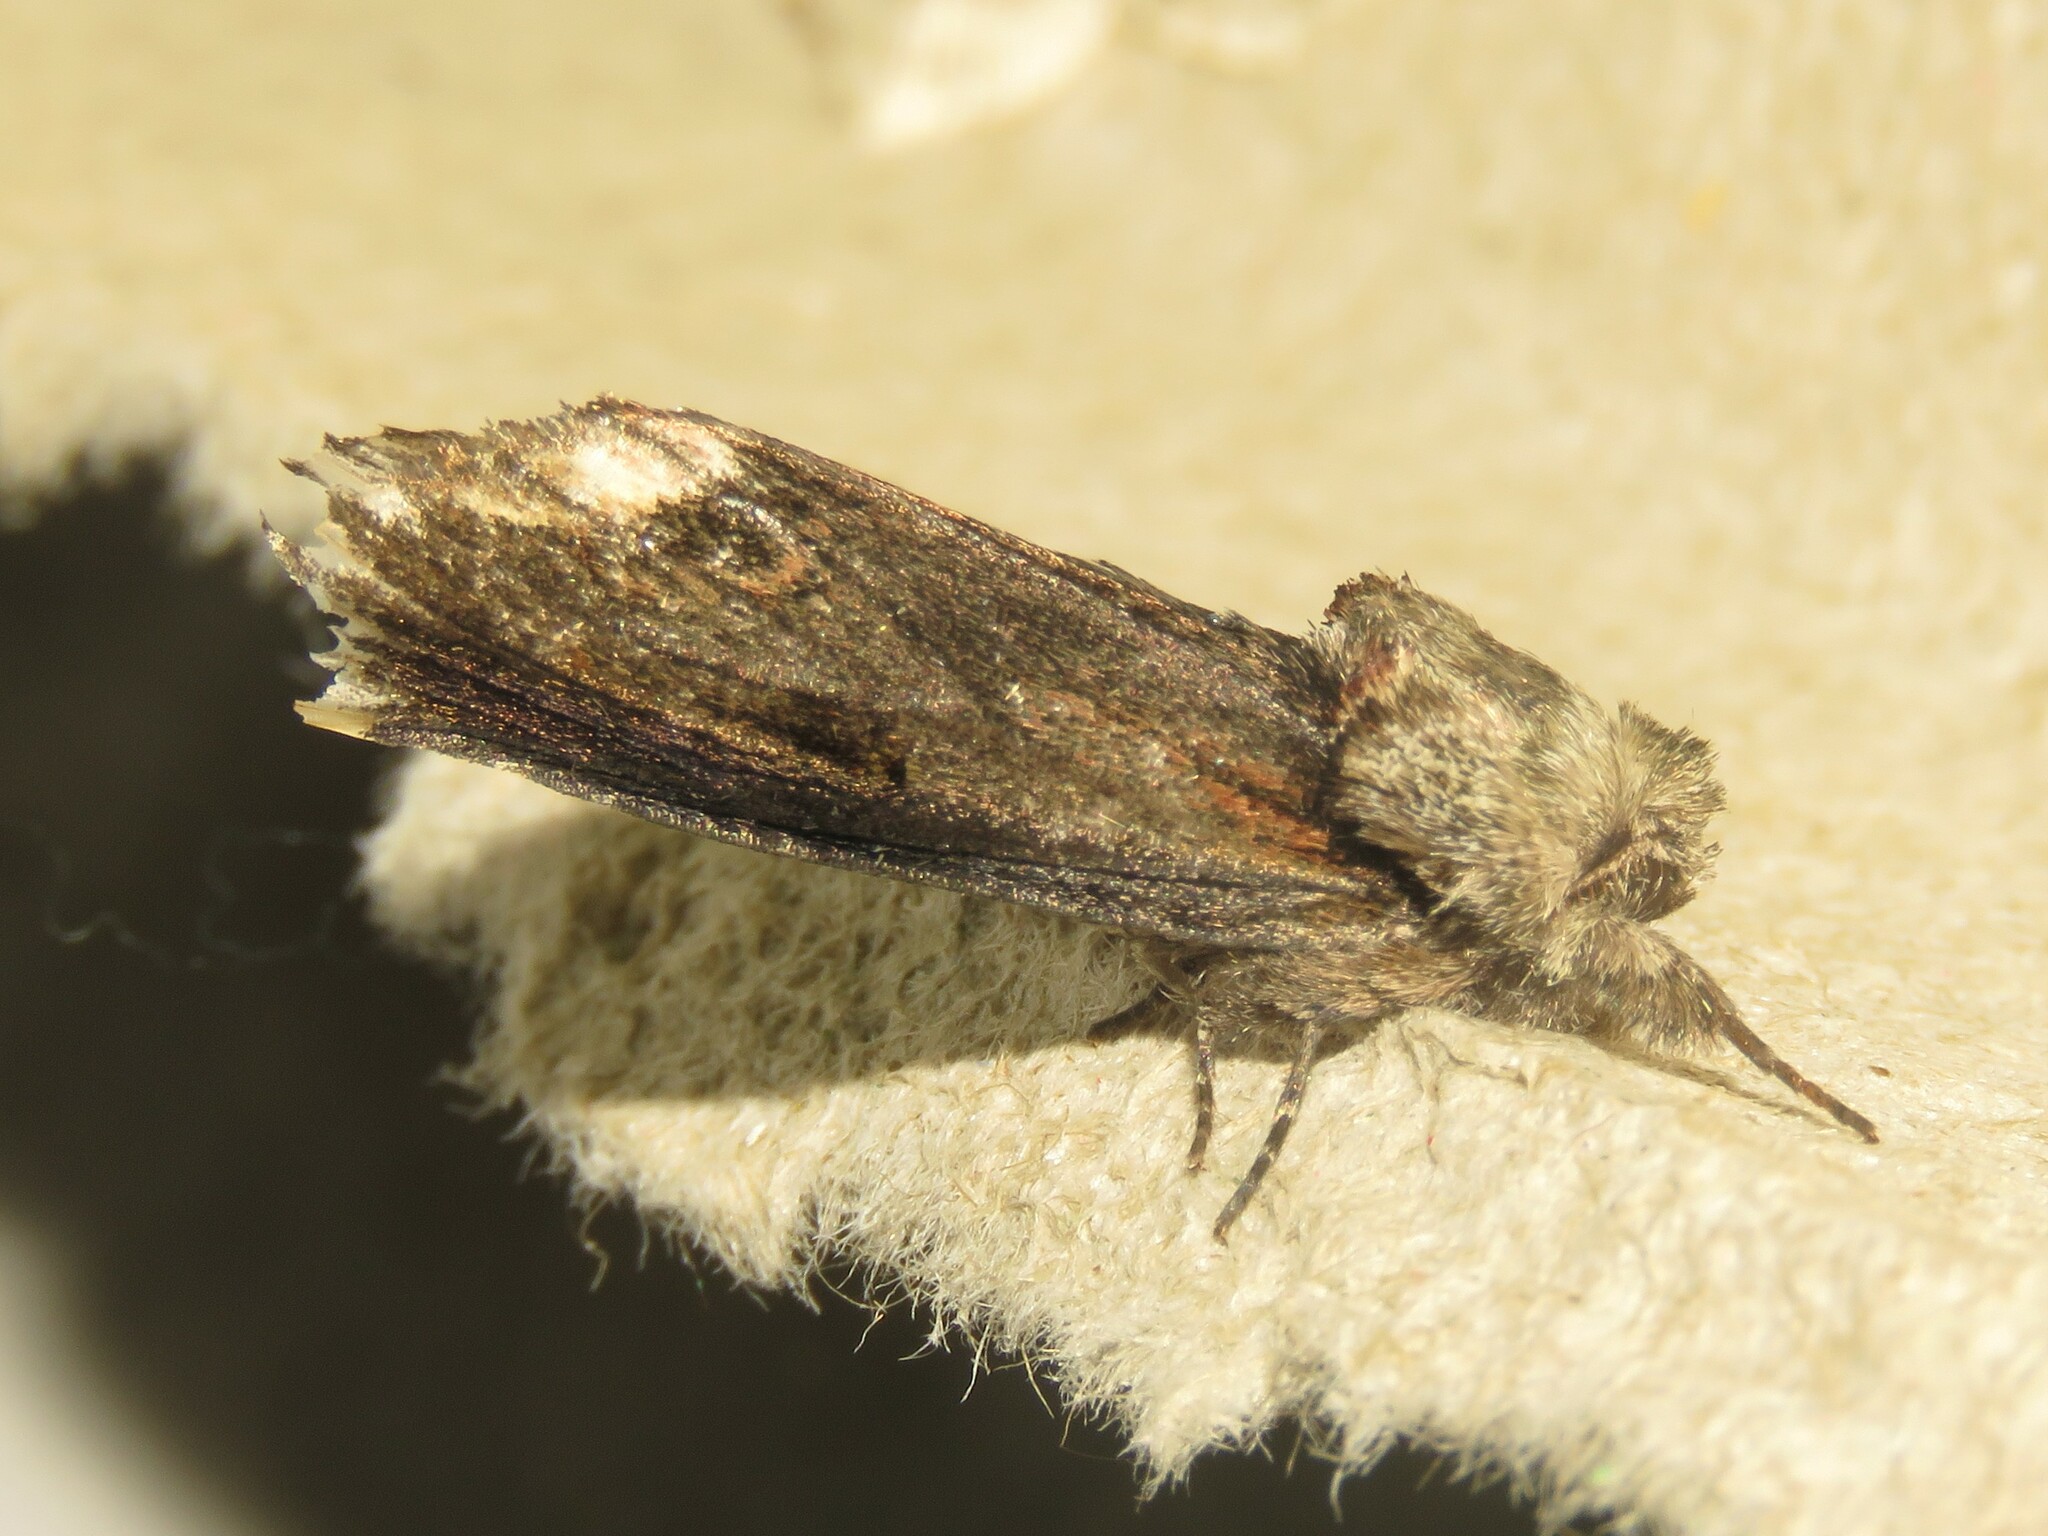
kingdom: Animalia
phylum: Arthropoda
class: Insecta
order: Lepidoptera
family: Notodontidae
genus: Schizura
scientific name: Schizura
